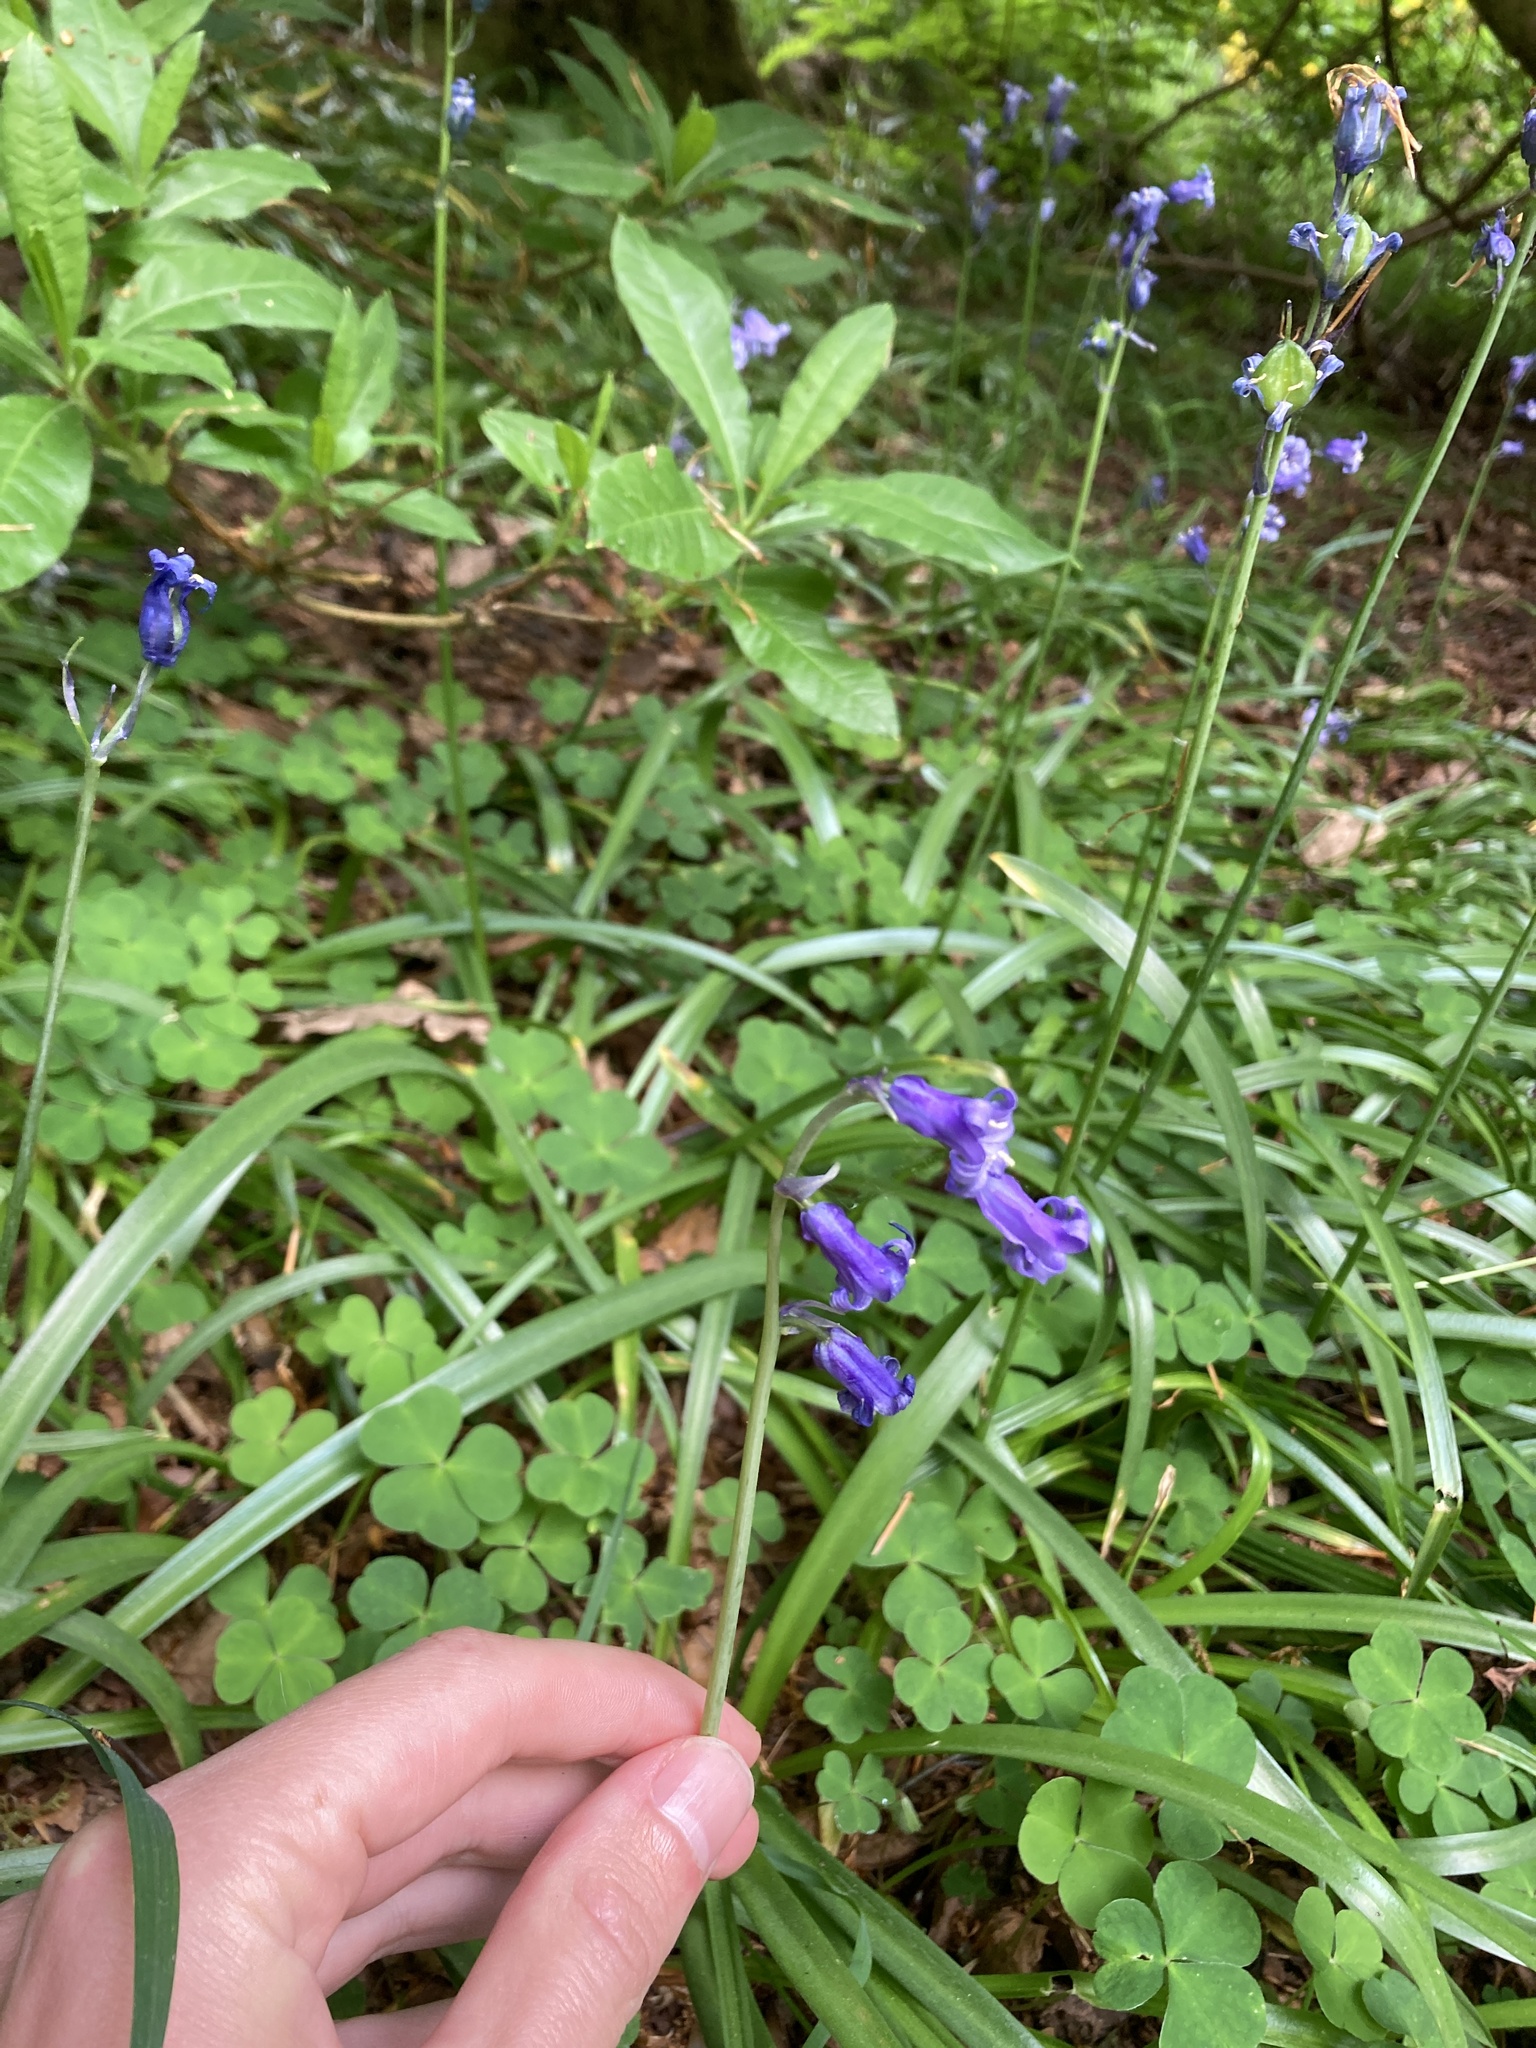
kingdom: Plantae
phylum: Tracheophyta
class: Liliopsida
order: Asparagales
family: Asparagaceae
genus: Hyacinthoides
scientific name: Hyacinthoides non-scripta
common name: Bluebell
